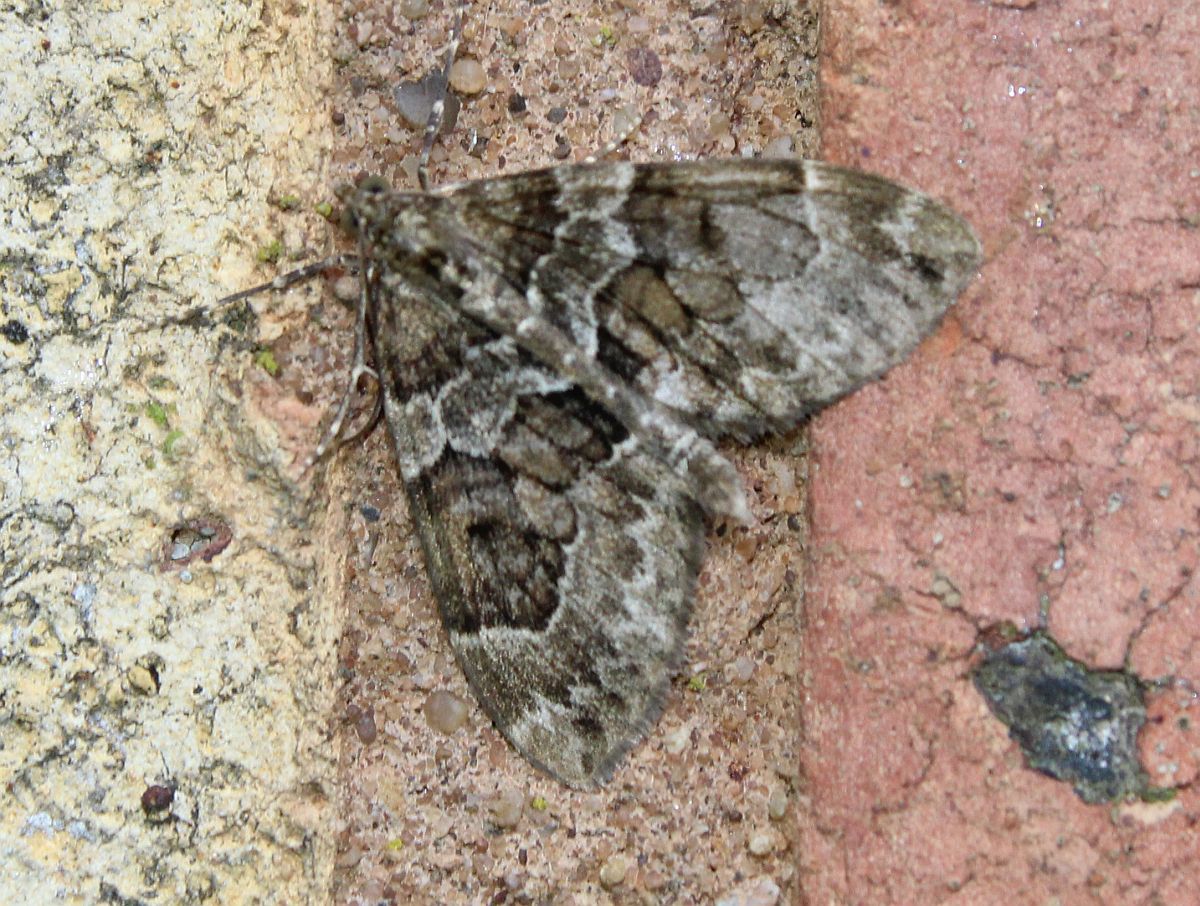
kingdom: Animalia
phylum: Arthropoda
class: Insecta
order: Lepidoptera
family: Geometridae
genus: Thera
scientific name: Thera britannica
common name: Spruce carpet
